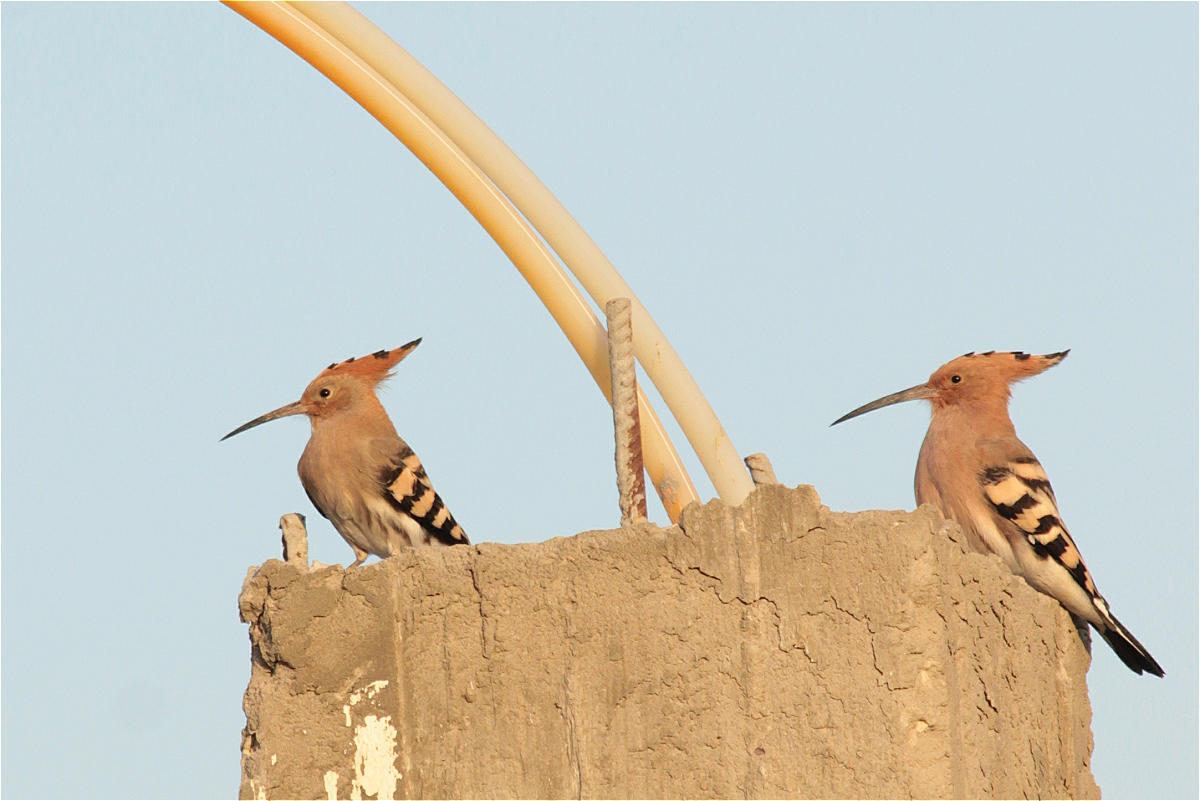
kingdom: Animalia
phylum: Chordata
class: Aves
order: Bucerotiformes
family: Upupidae
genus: Upupa
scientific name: Upupa epops
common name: Eurasian hoopoe
